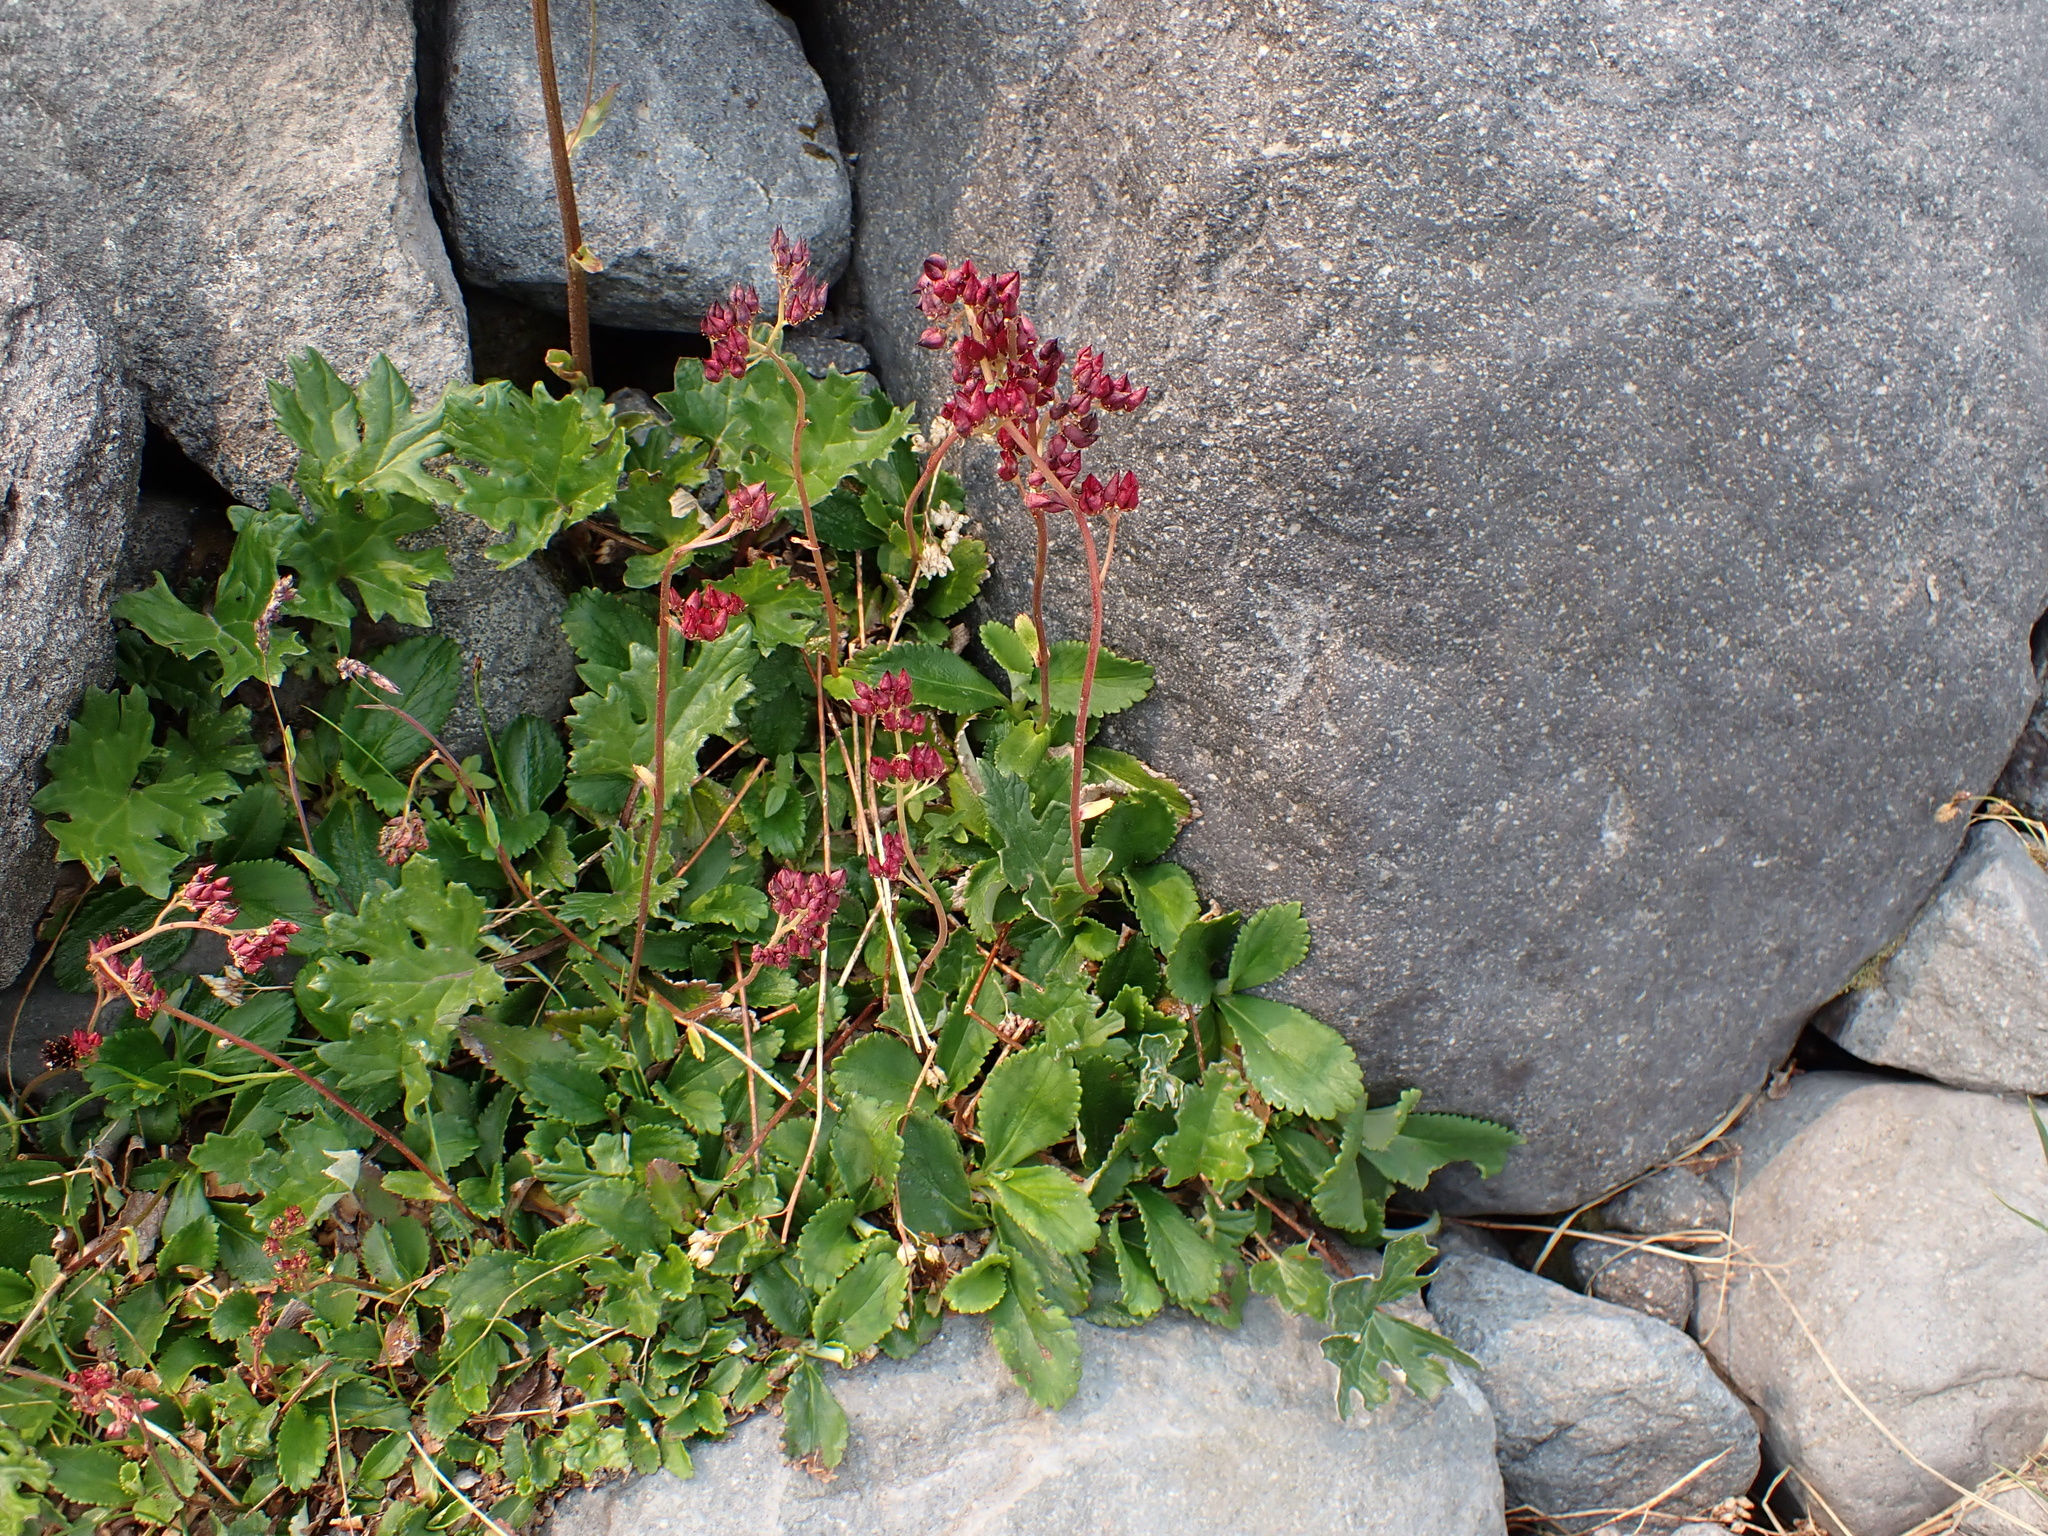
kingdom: Plantae
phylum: Tracheophyta
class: Magnoliopsida
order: Saxifragales
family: Saxifragaceae
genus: Leptarrhena
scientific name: Leptarrhena pyrolifolia
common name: Leatherleaf-saxifrage
